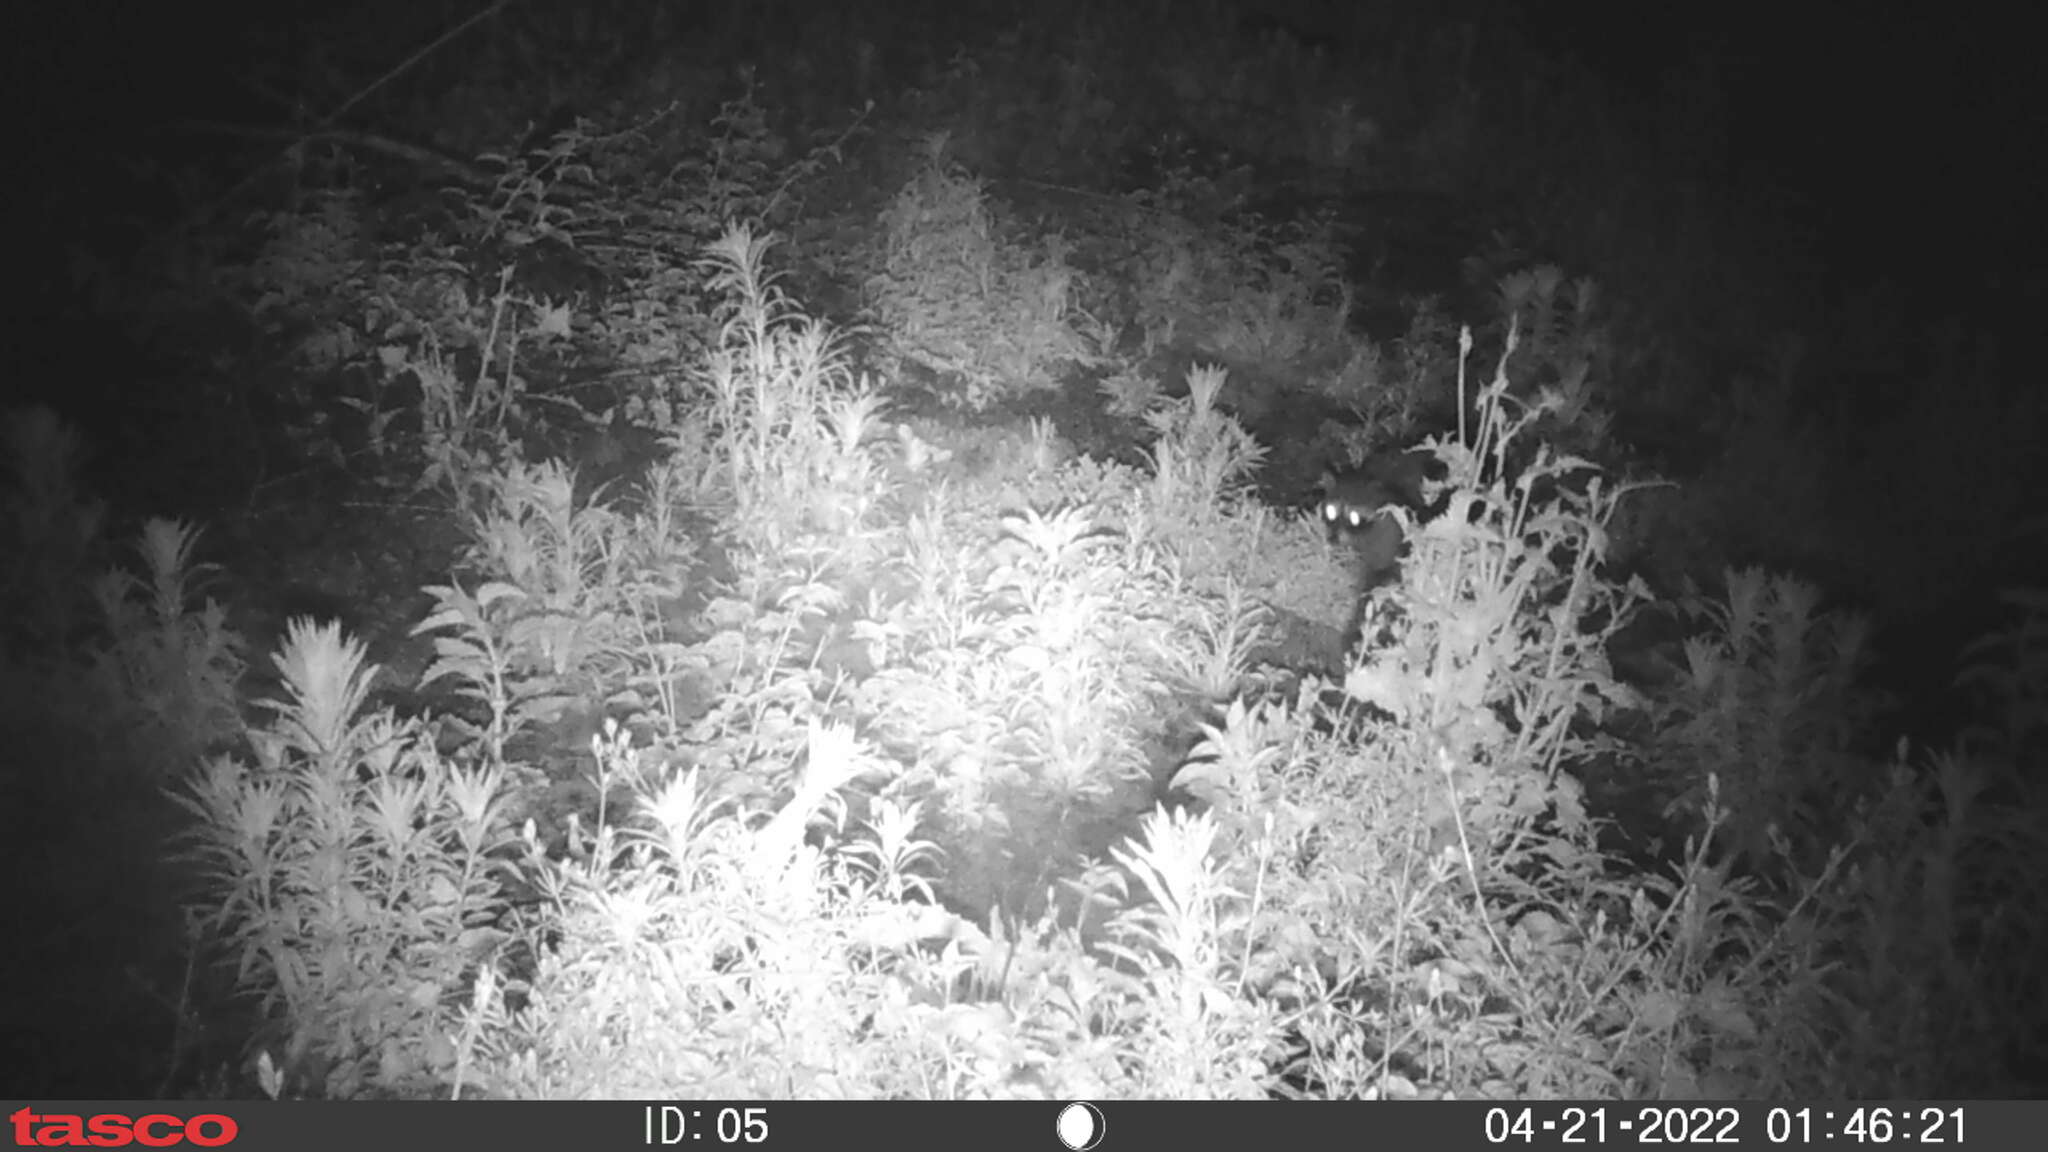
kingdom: Animalia
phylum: Chordata
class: Mammalia
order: Carnivora
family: Procyonidae
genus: Procyon
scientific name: Procyon lotor
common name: Raccoon
